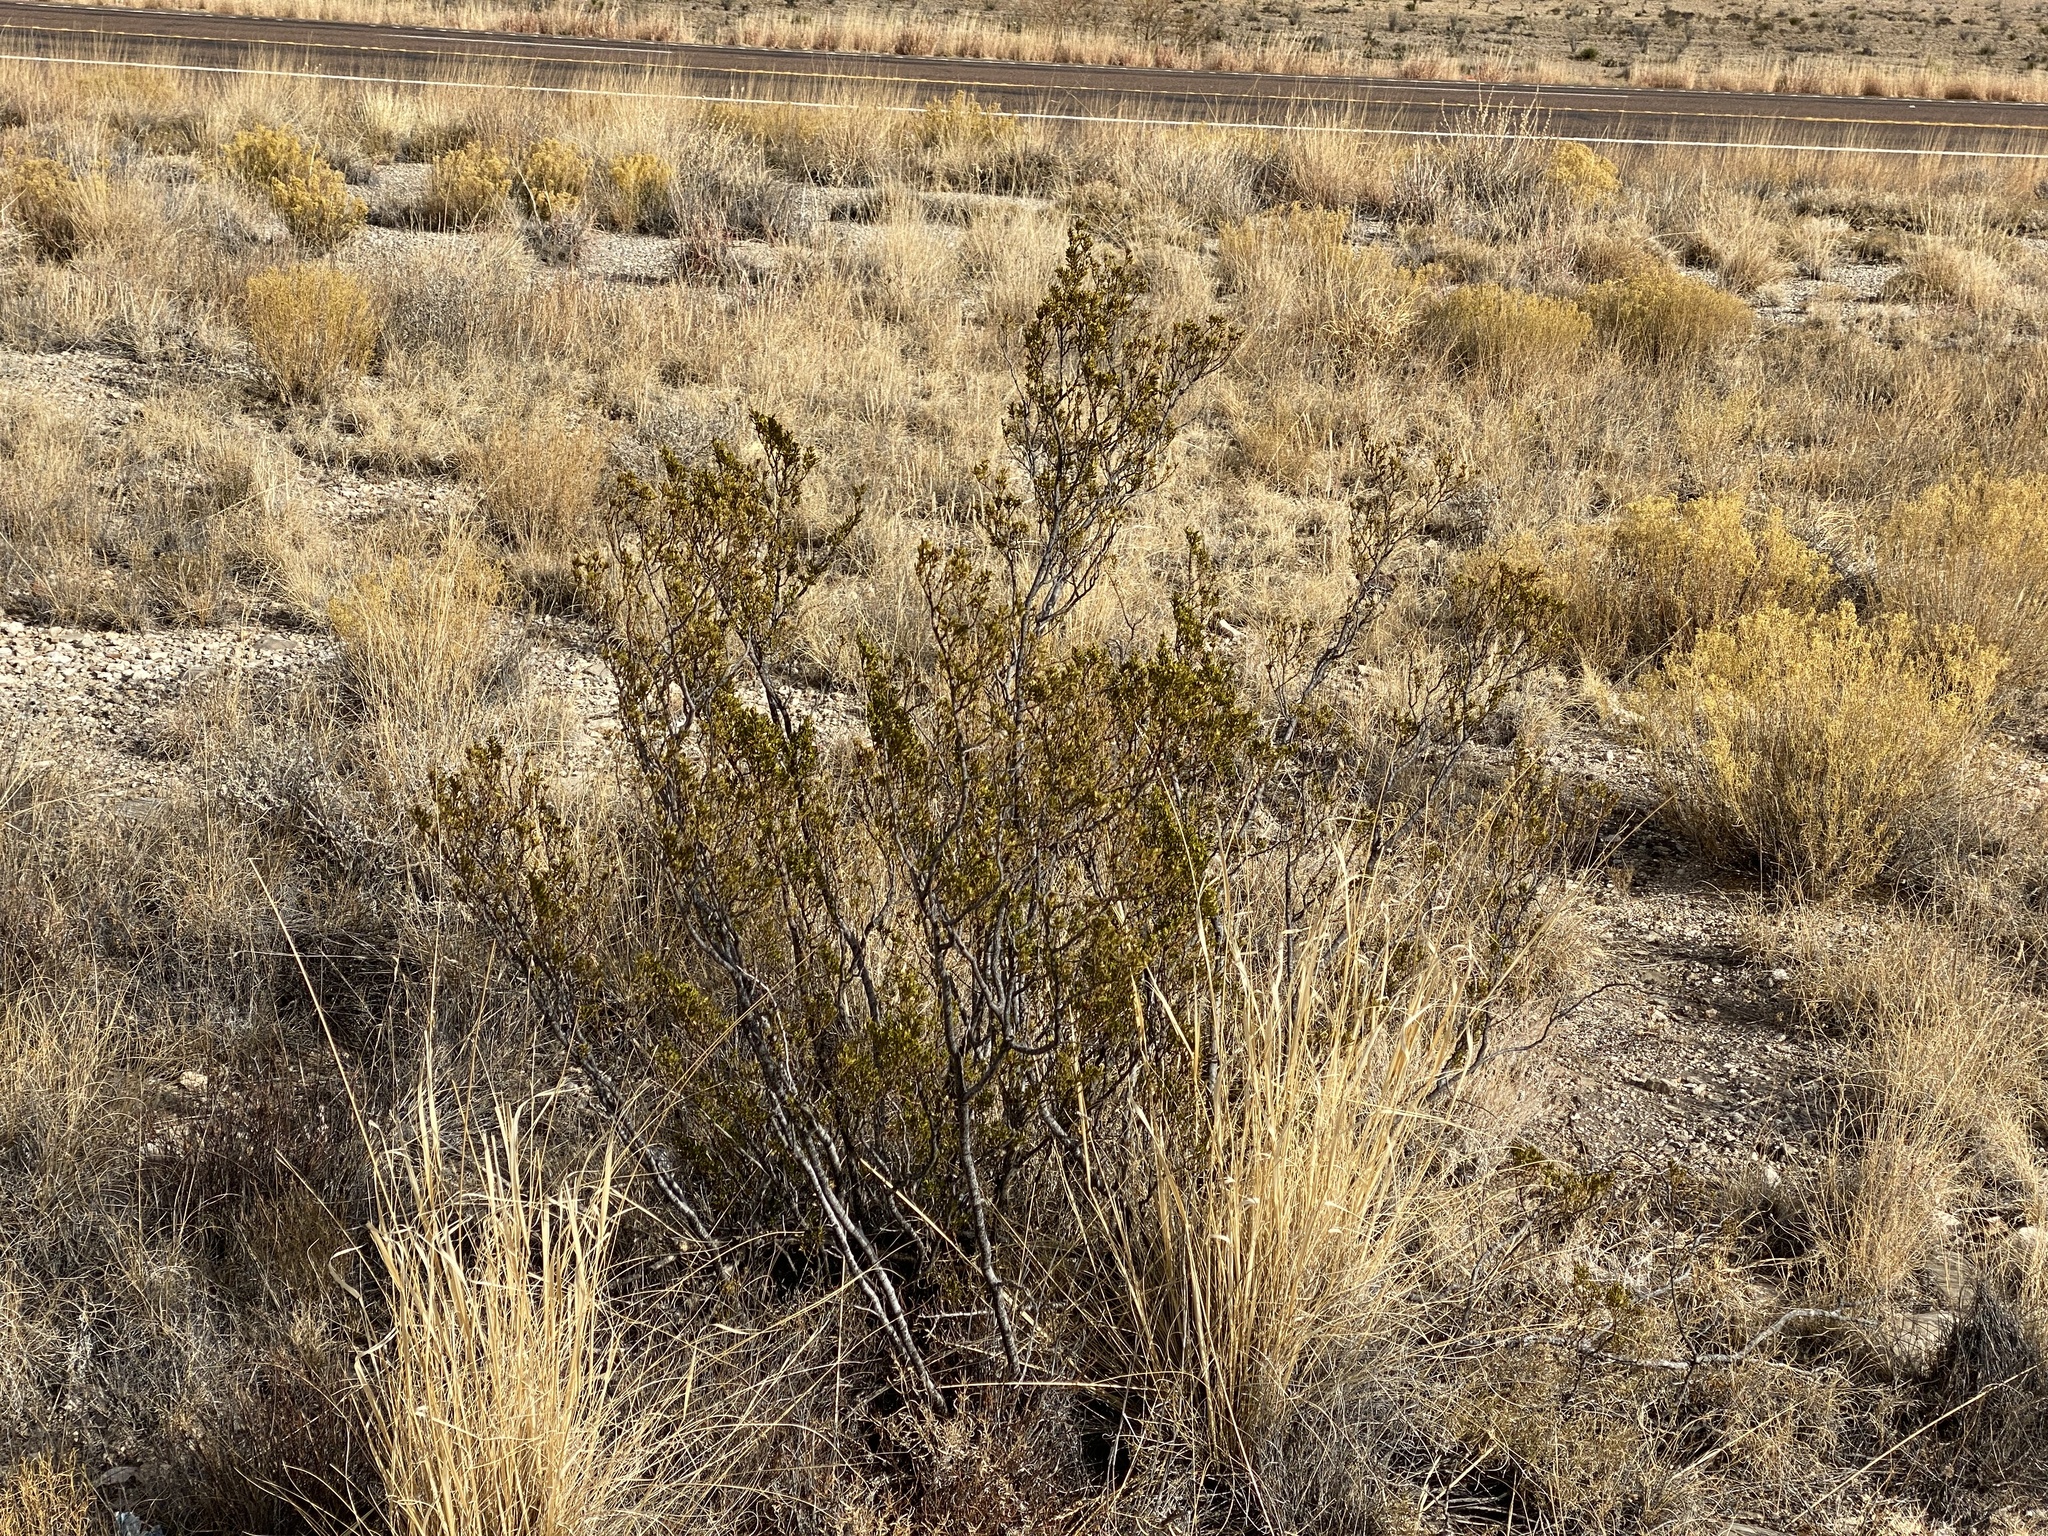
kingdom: Plantae
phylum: Tracheophyta
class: Magnoliopsida
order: Zygophyllales
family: Zygophyllaceae
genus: Larrea
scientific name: Larrea tridentata
